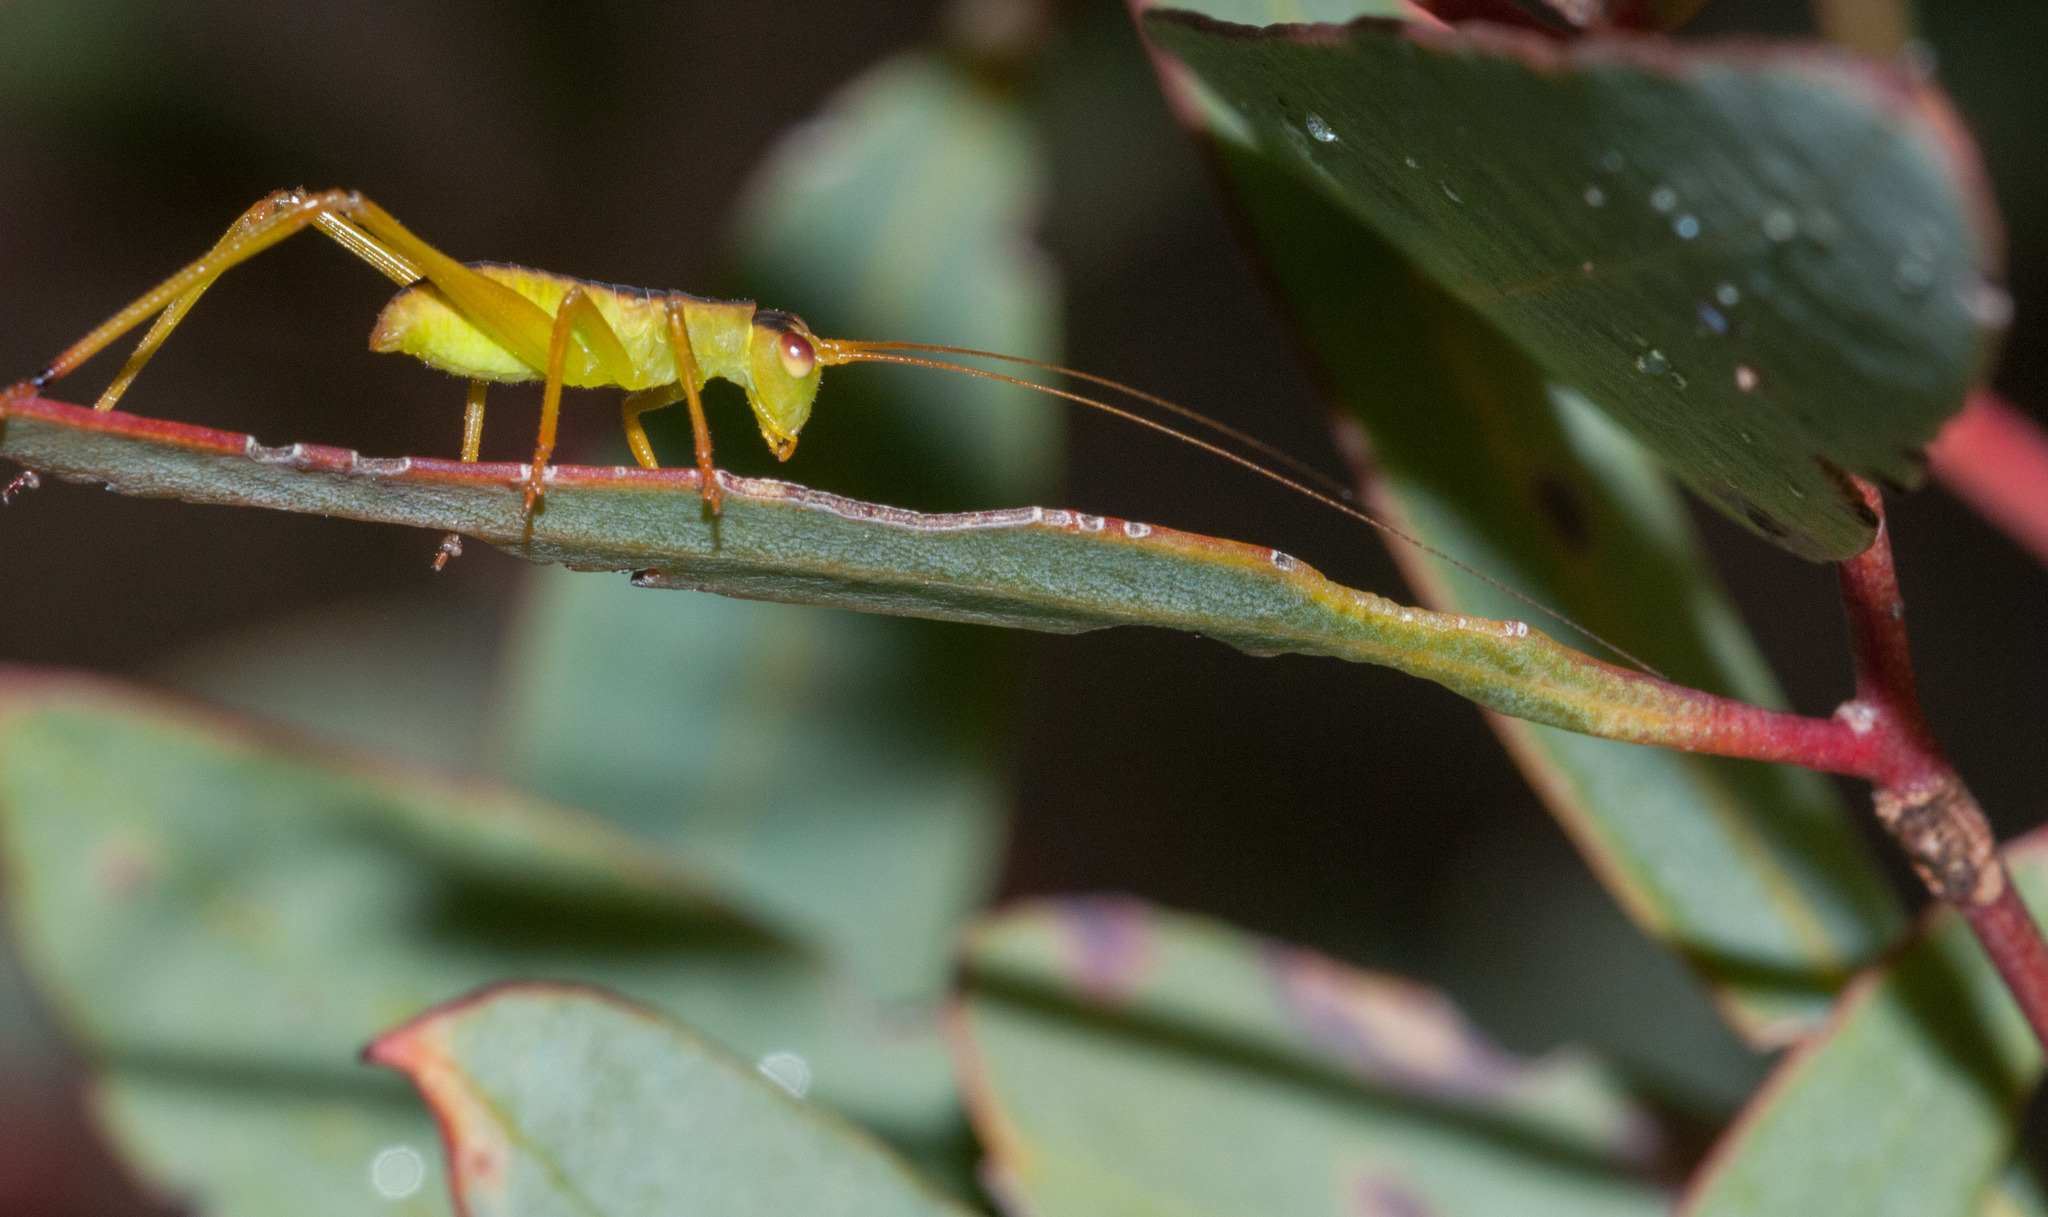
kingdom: Animalia
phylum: Arthropoda
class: Insecta
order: Orthoptera
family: Tettigoniidae
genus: Torbia
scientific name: Torbia viridissima
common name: Non-predaceous gum leaf katydid
